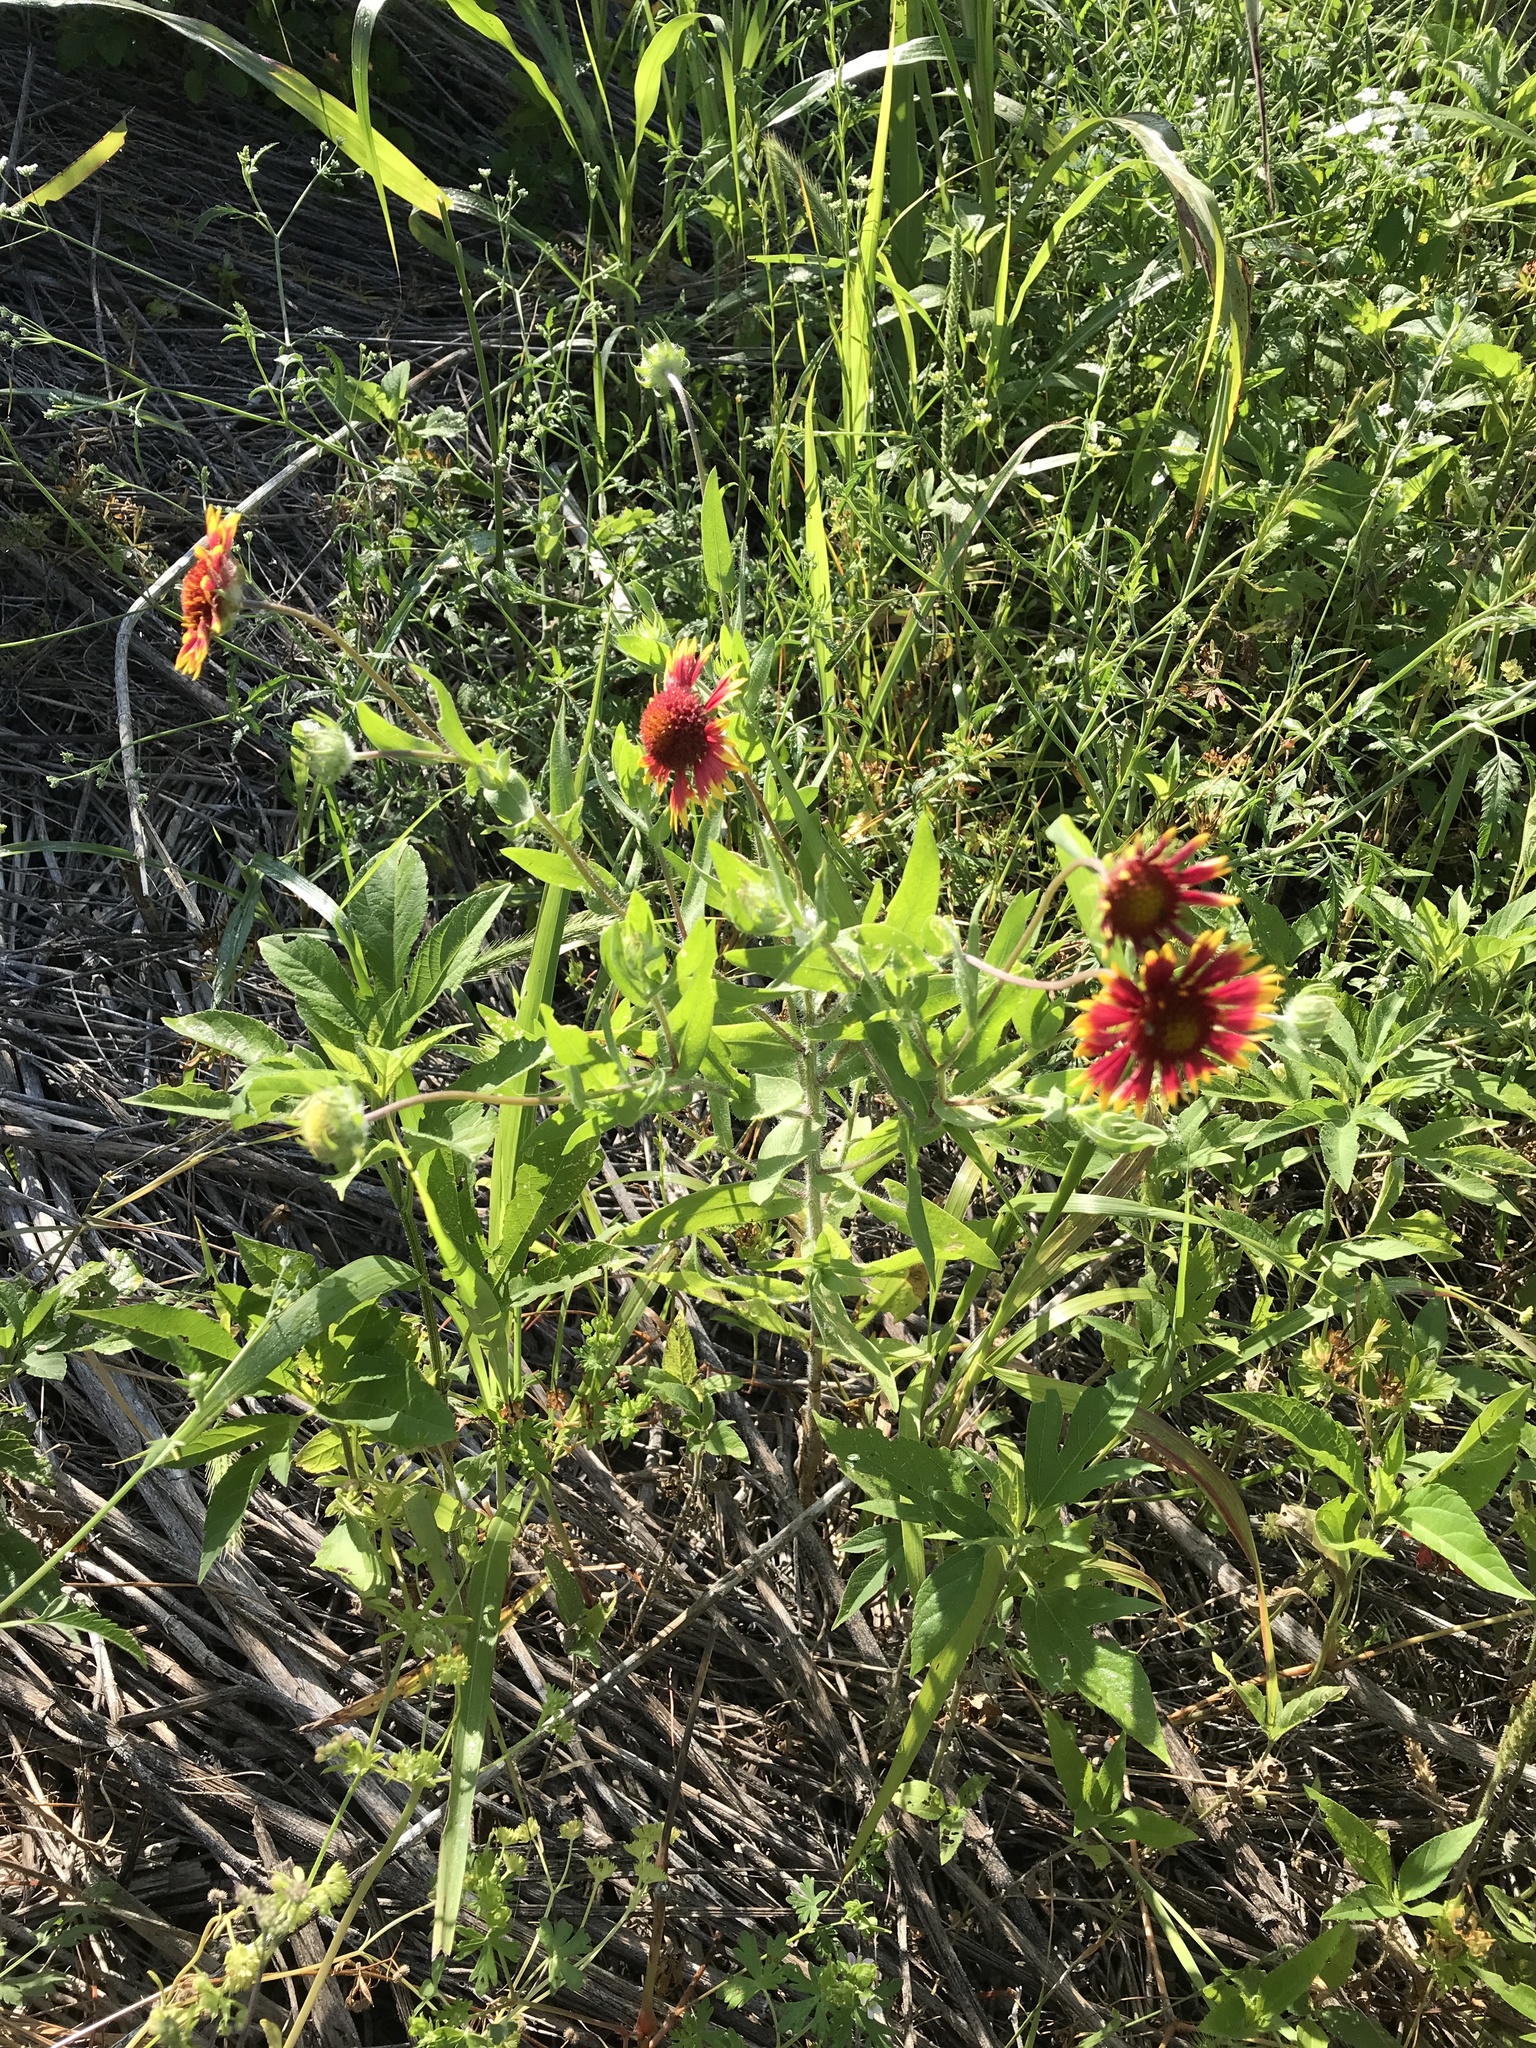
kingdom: Plantae
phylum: Tracheophyta
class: Magnoliopsida
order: Asterales
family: Asteraceae
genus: Gaillardia
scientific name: Gaillardia pulchella
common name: Firewheel
